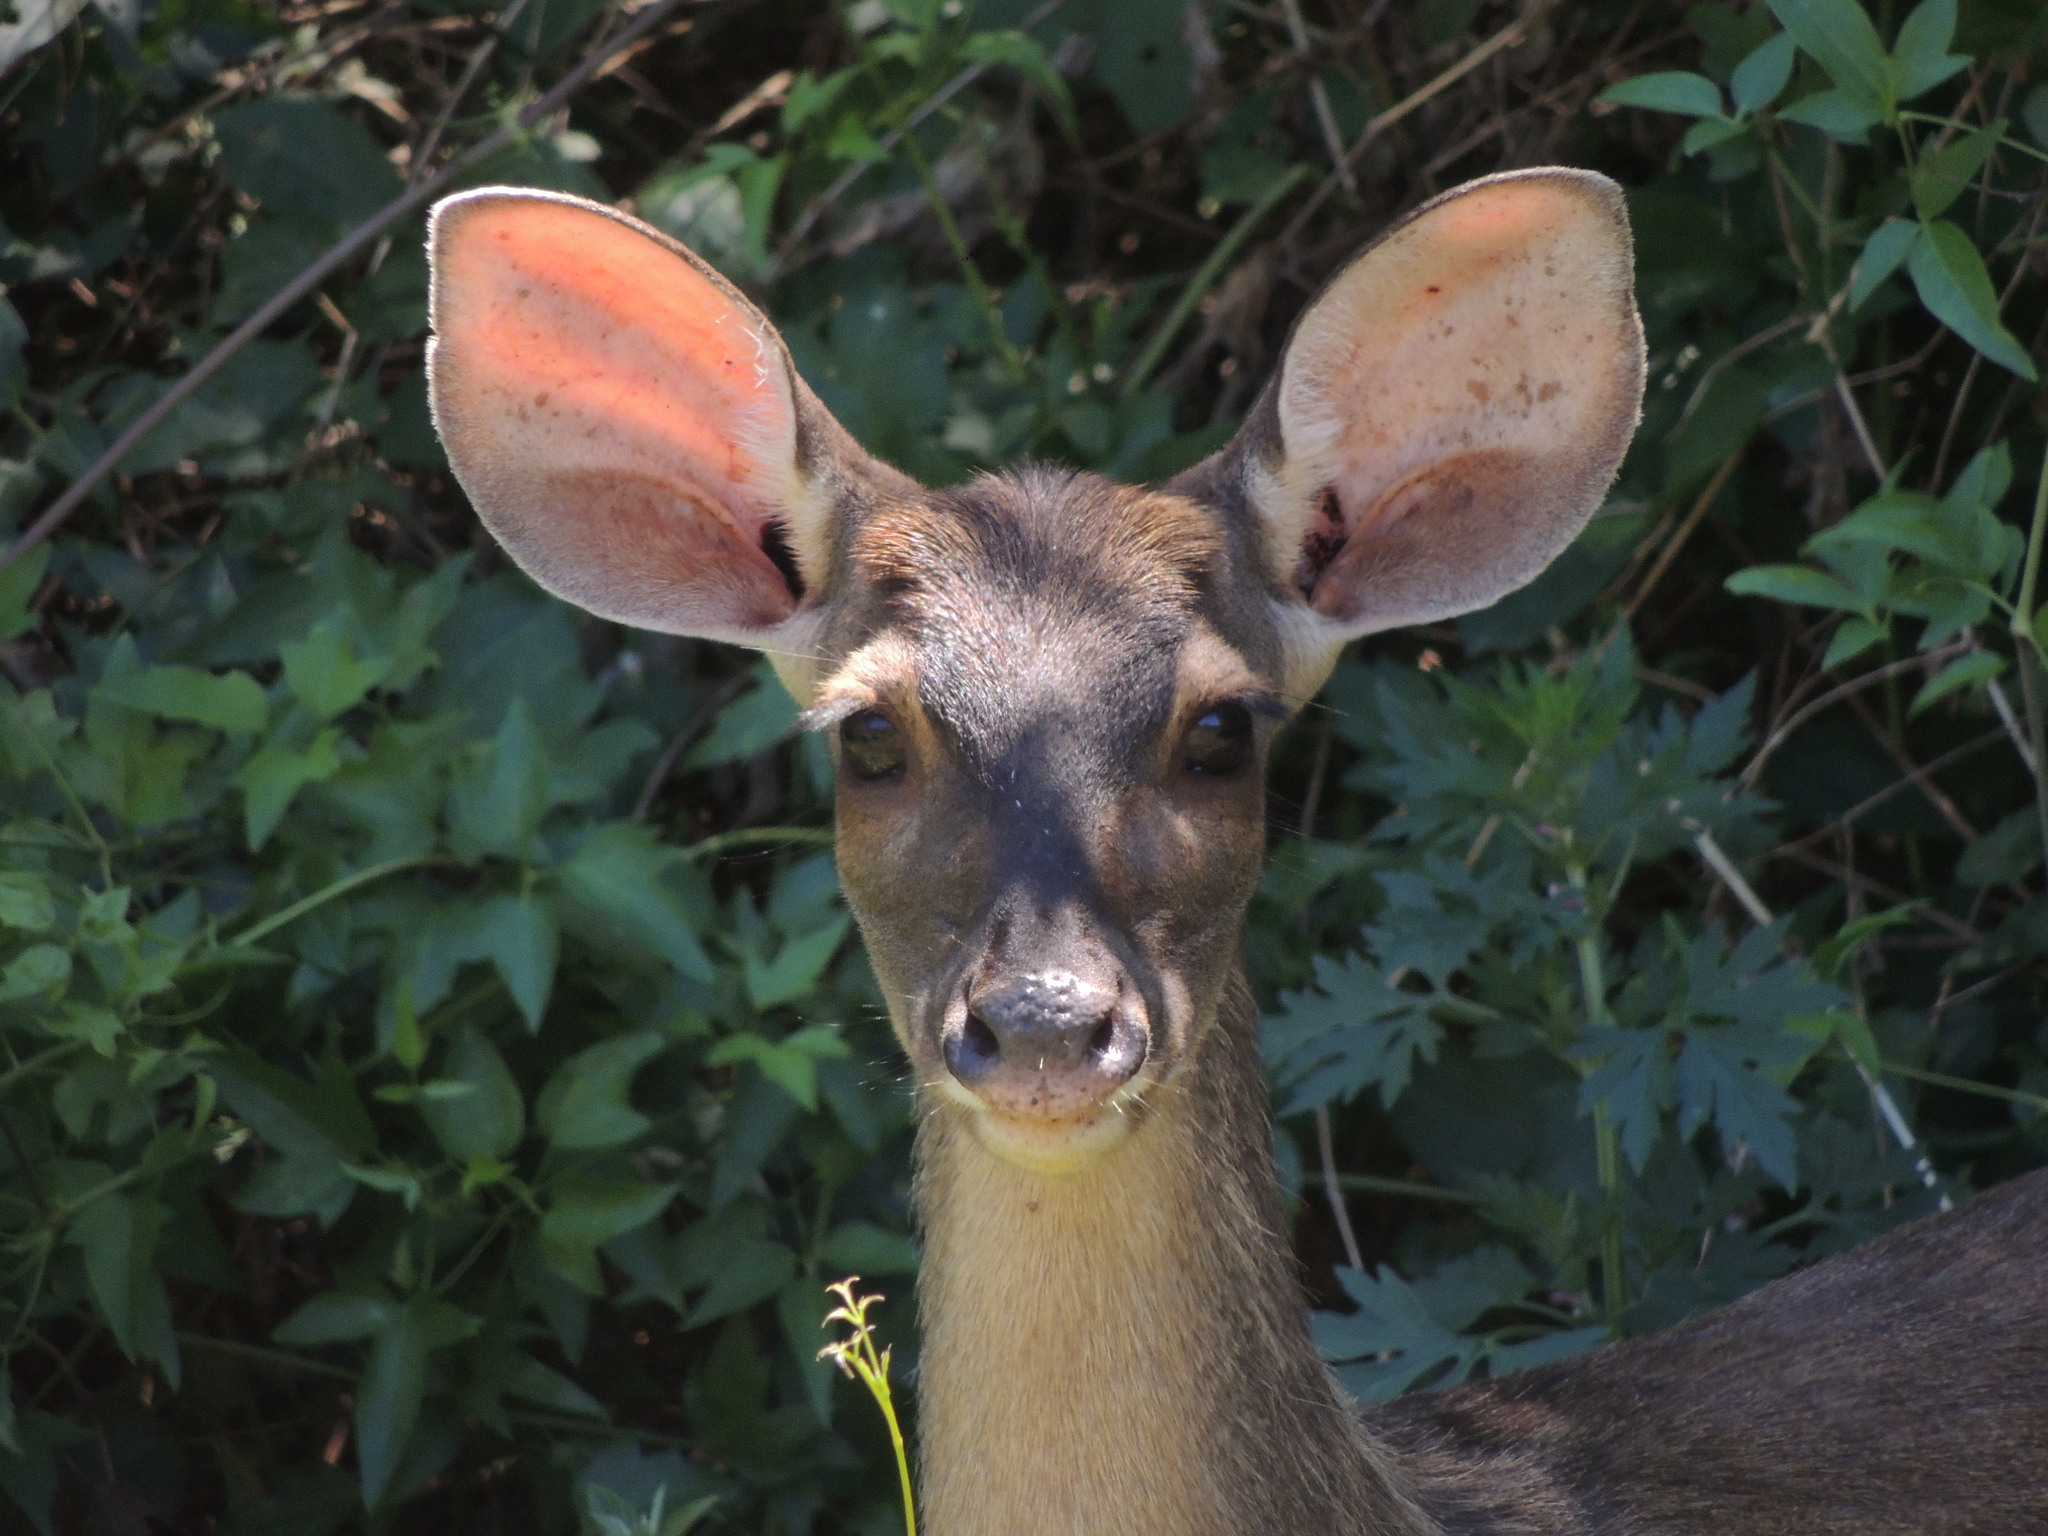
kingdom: Animalia
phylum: Chordata
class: Mammalia
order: Artiodactyla
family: Cervidae
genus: Mazama
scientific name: Mazama gouazoubira
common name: Gray brocket
